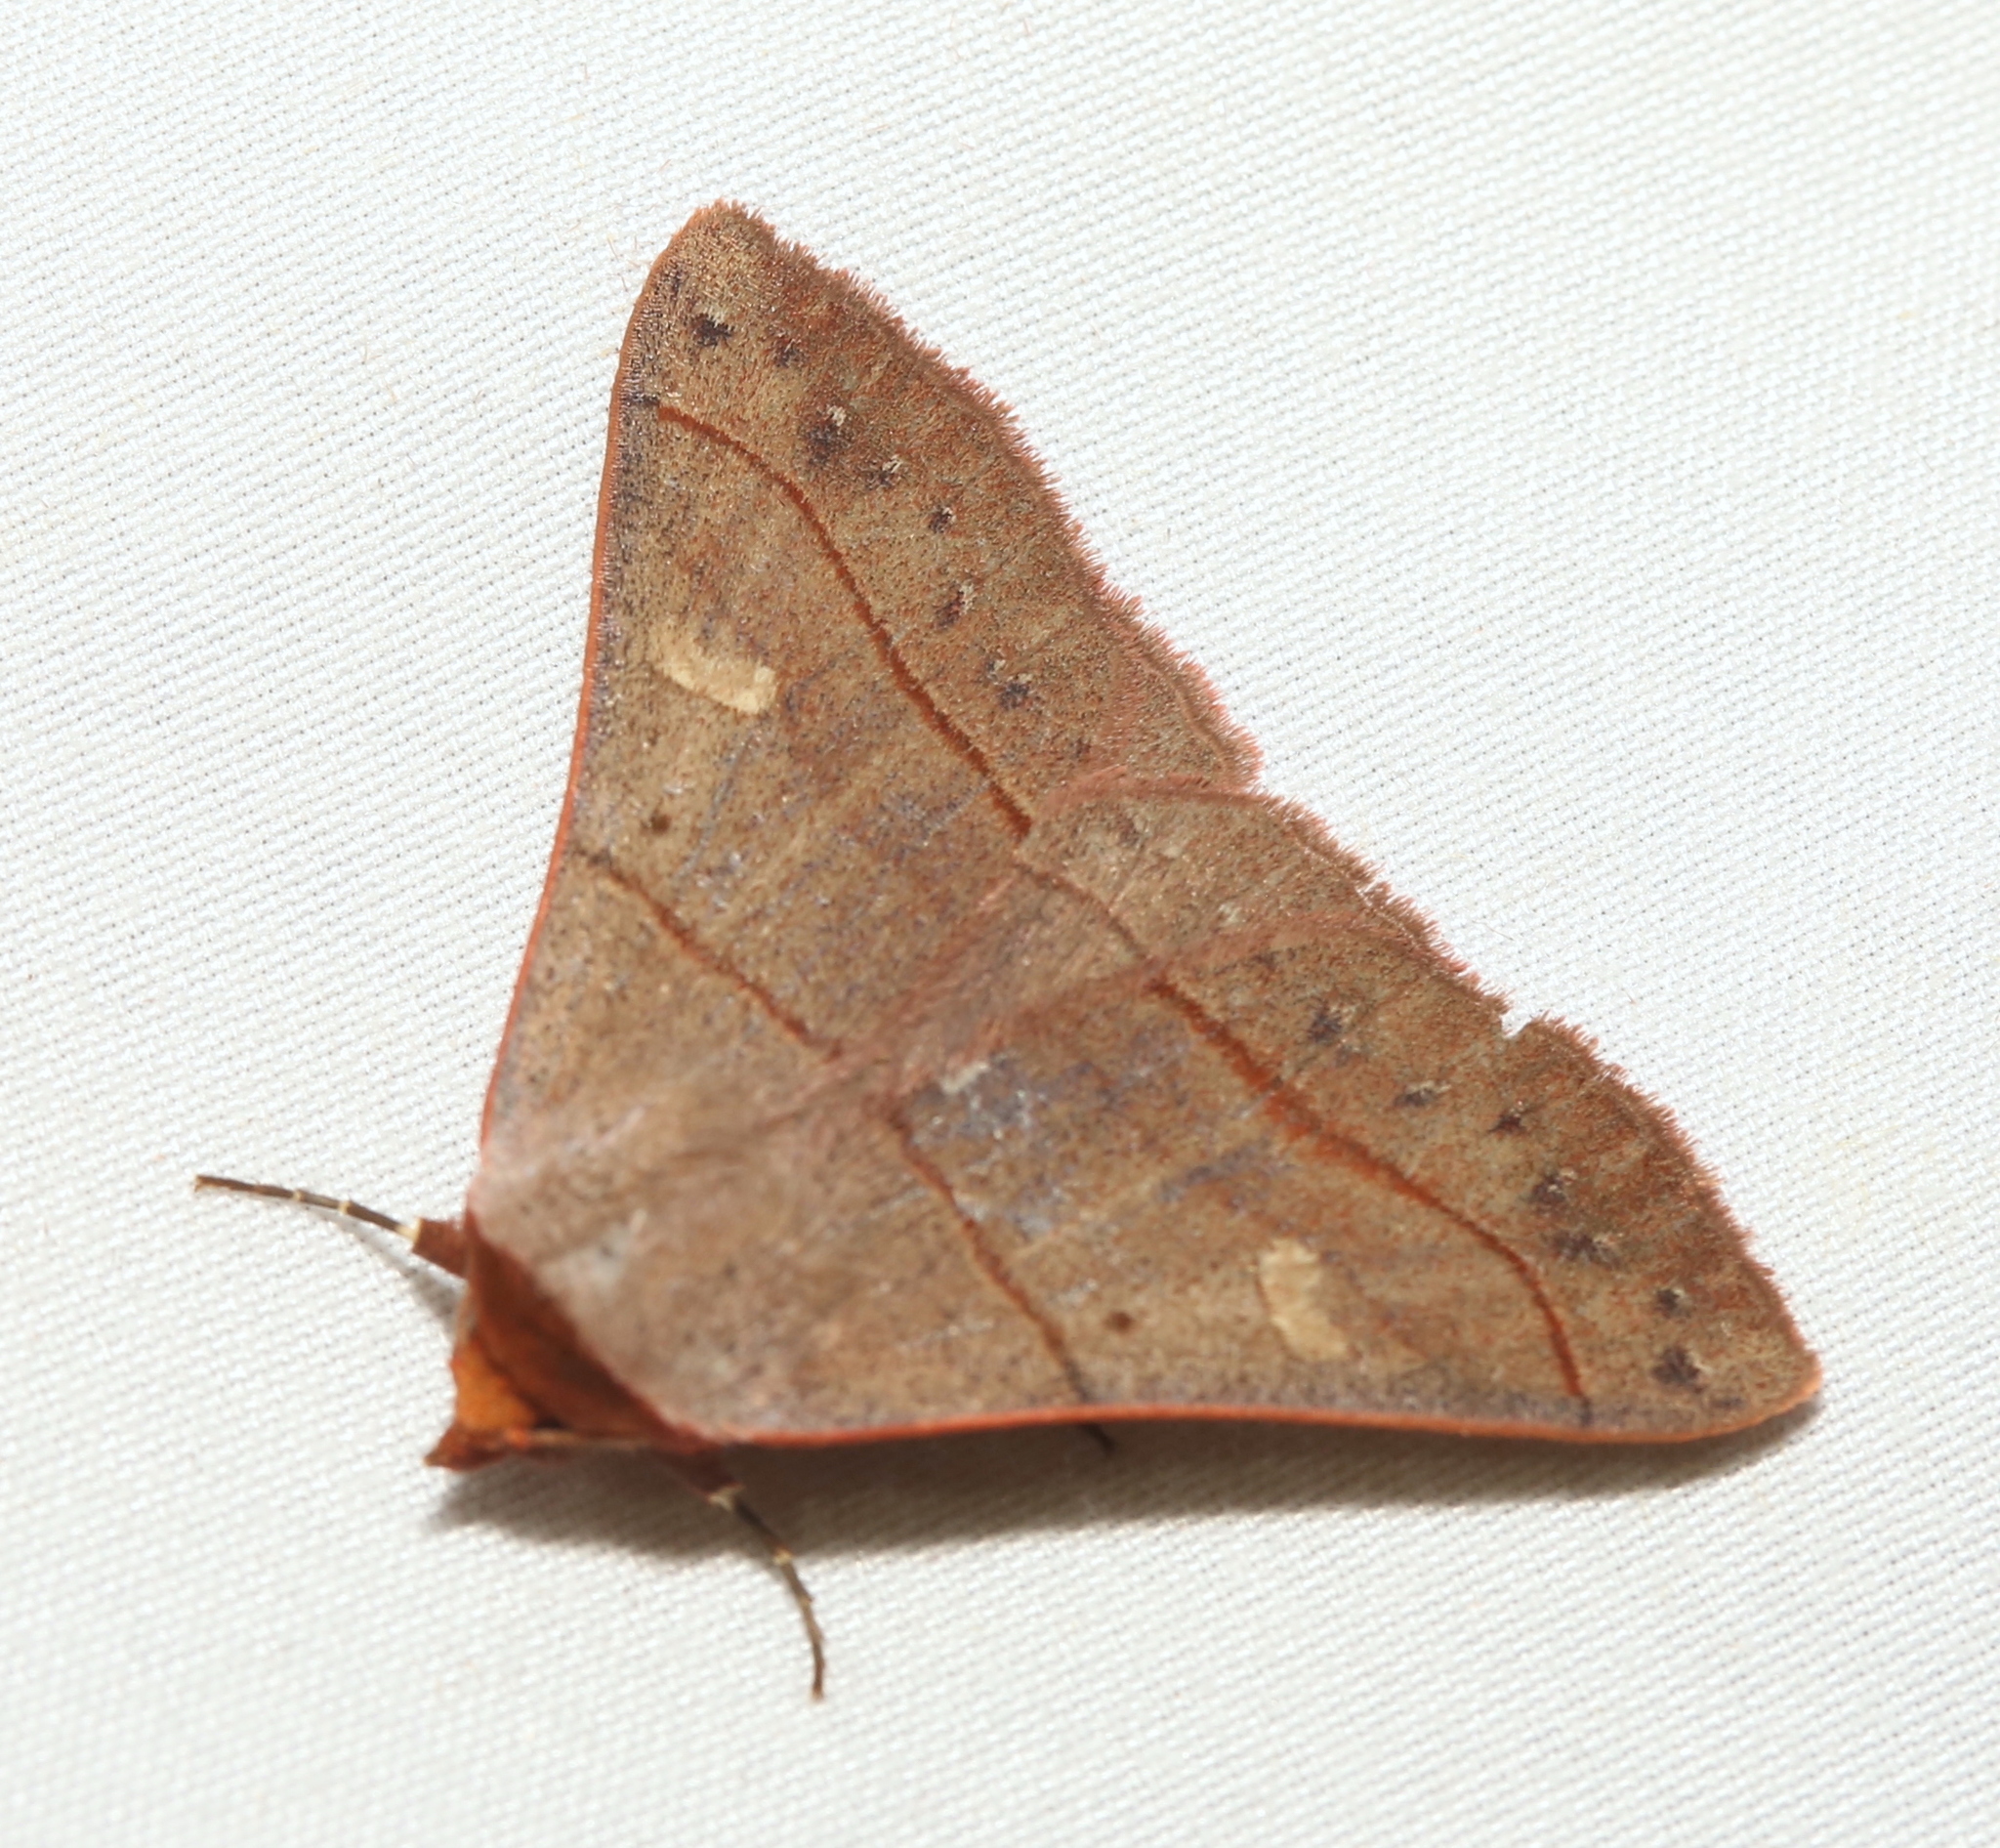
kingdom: Animalia
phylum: Arthropoda
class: Insecta
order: Lepidoptera
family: Erebidae
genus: Panopoda
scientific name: Panopoda rufimargo
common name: Red-lined panopoda moth
